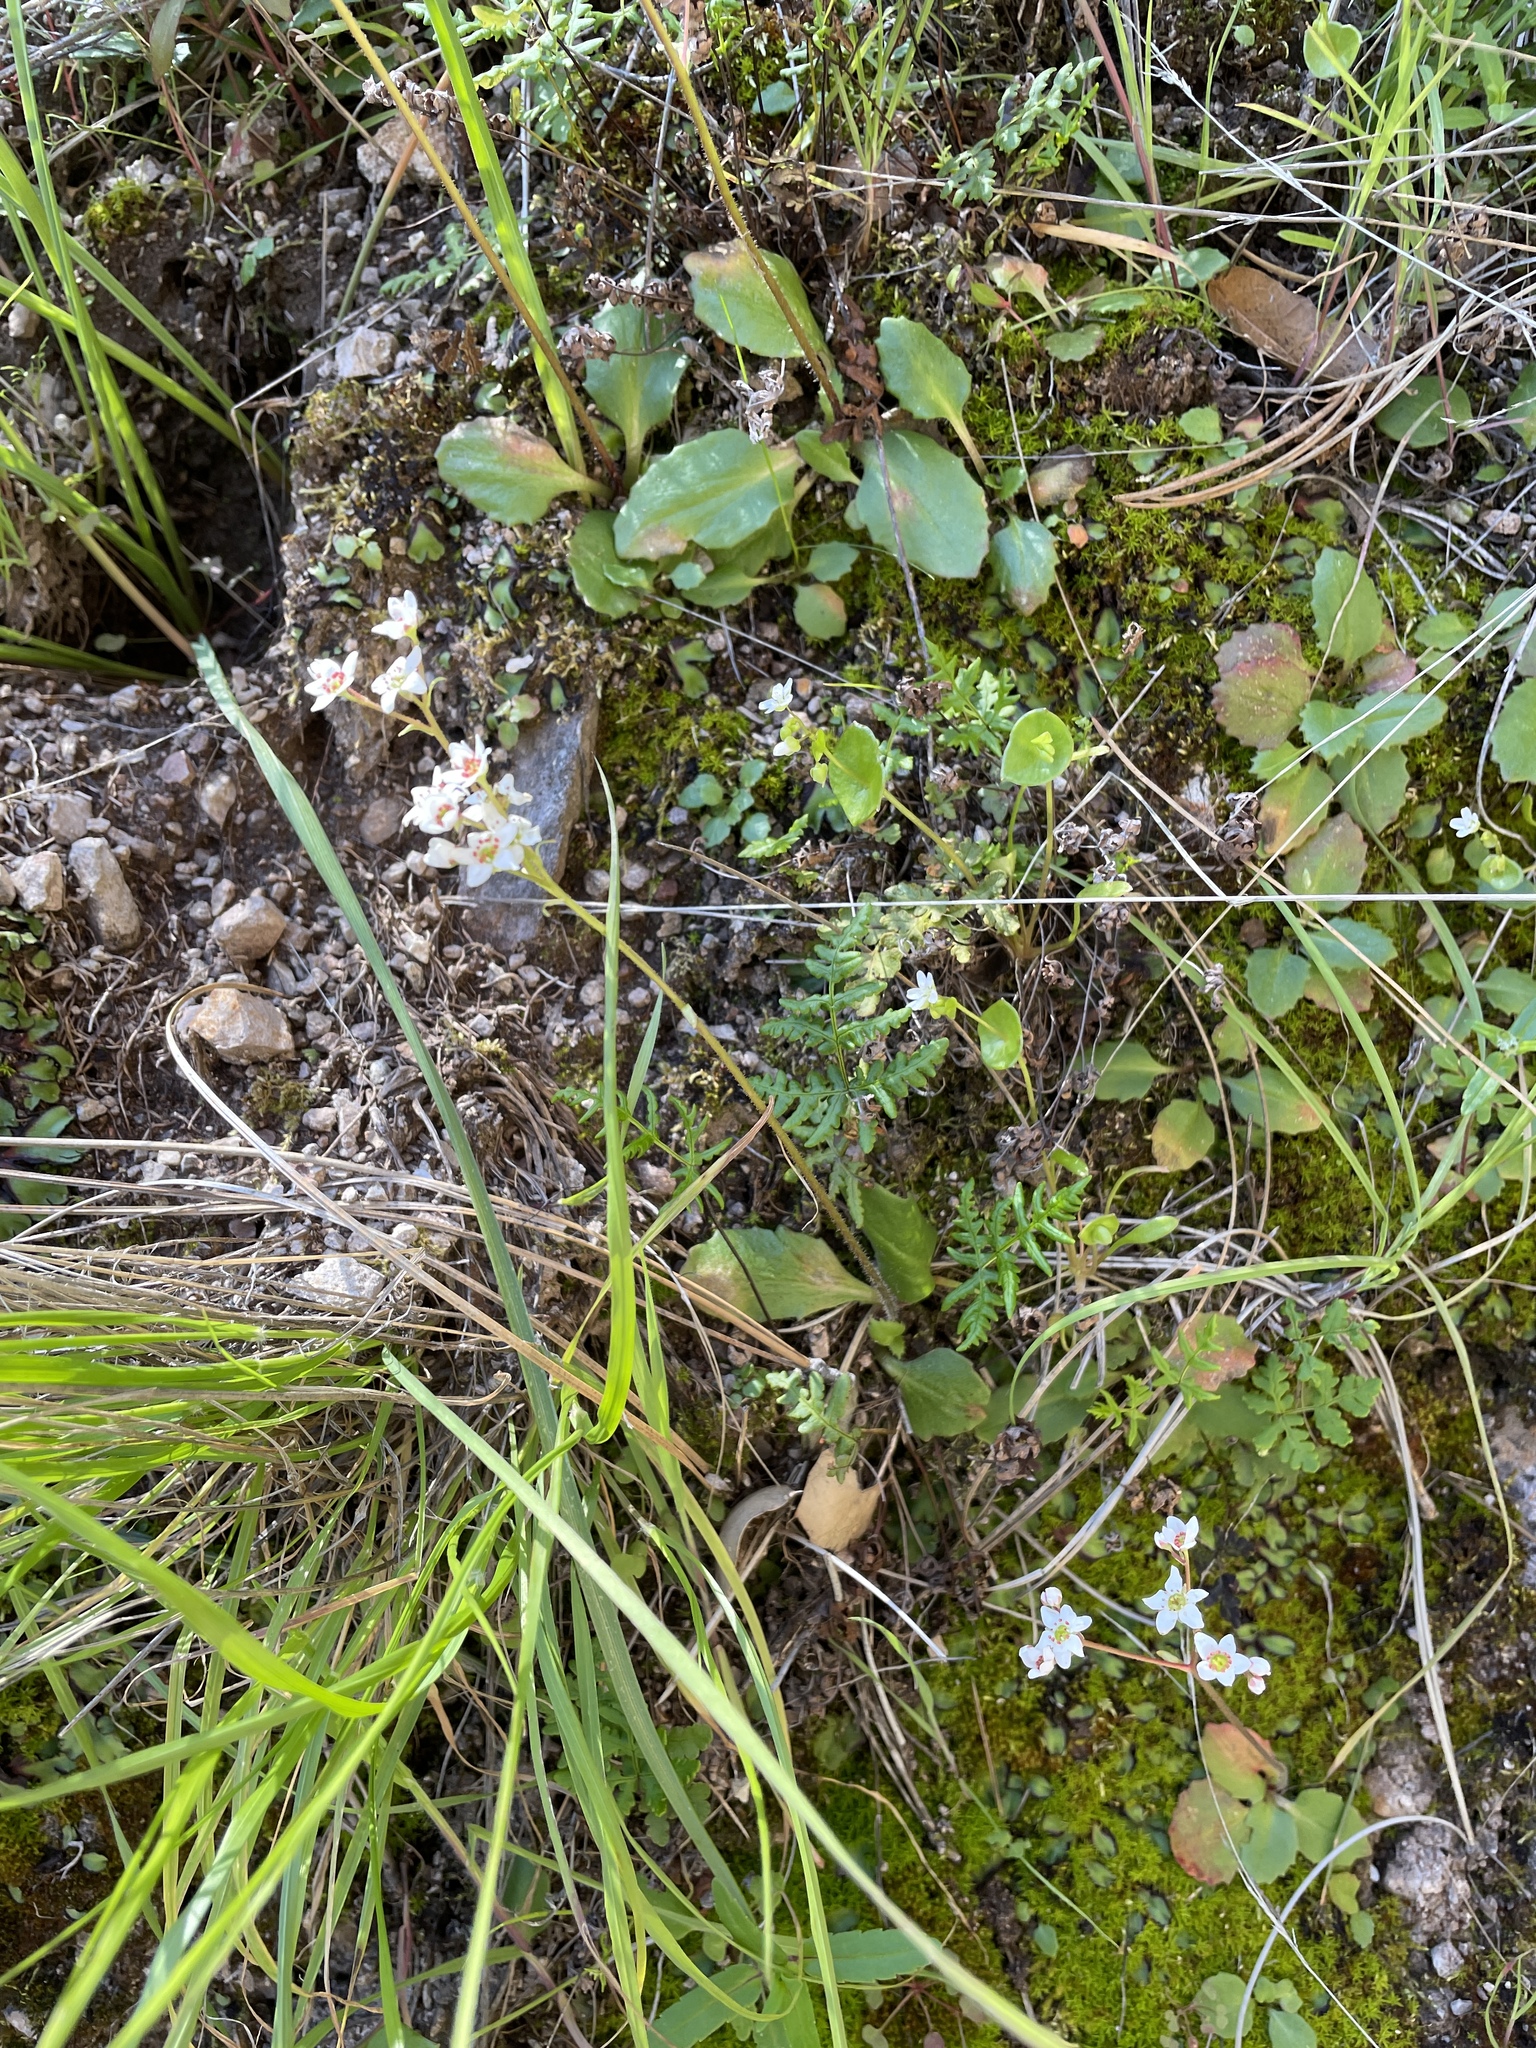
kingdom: Plantae
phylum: Tracheophyta
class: Magnoliopsida
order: Saxifragales
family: Saxifragaceae
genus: Micranthes
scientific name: Micranthes californica
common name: California saxifrage
